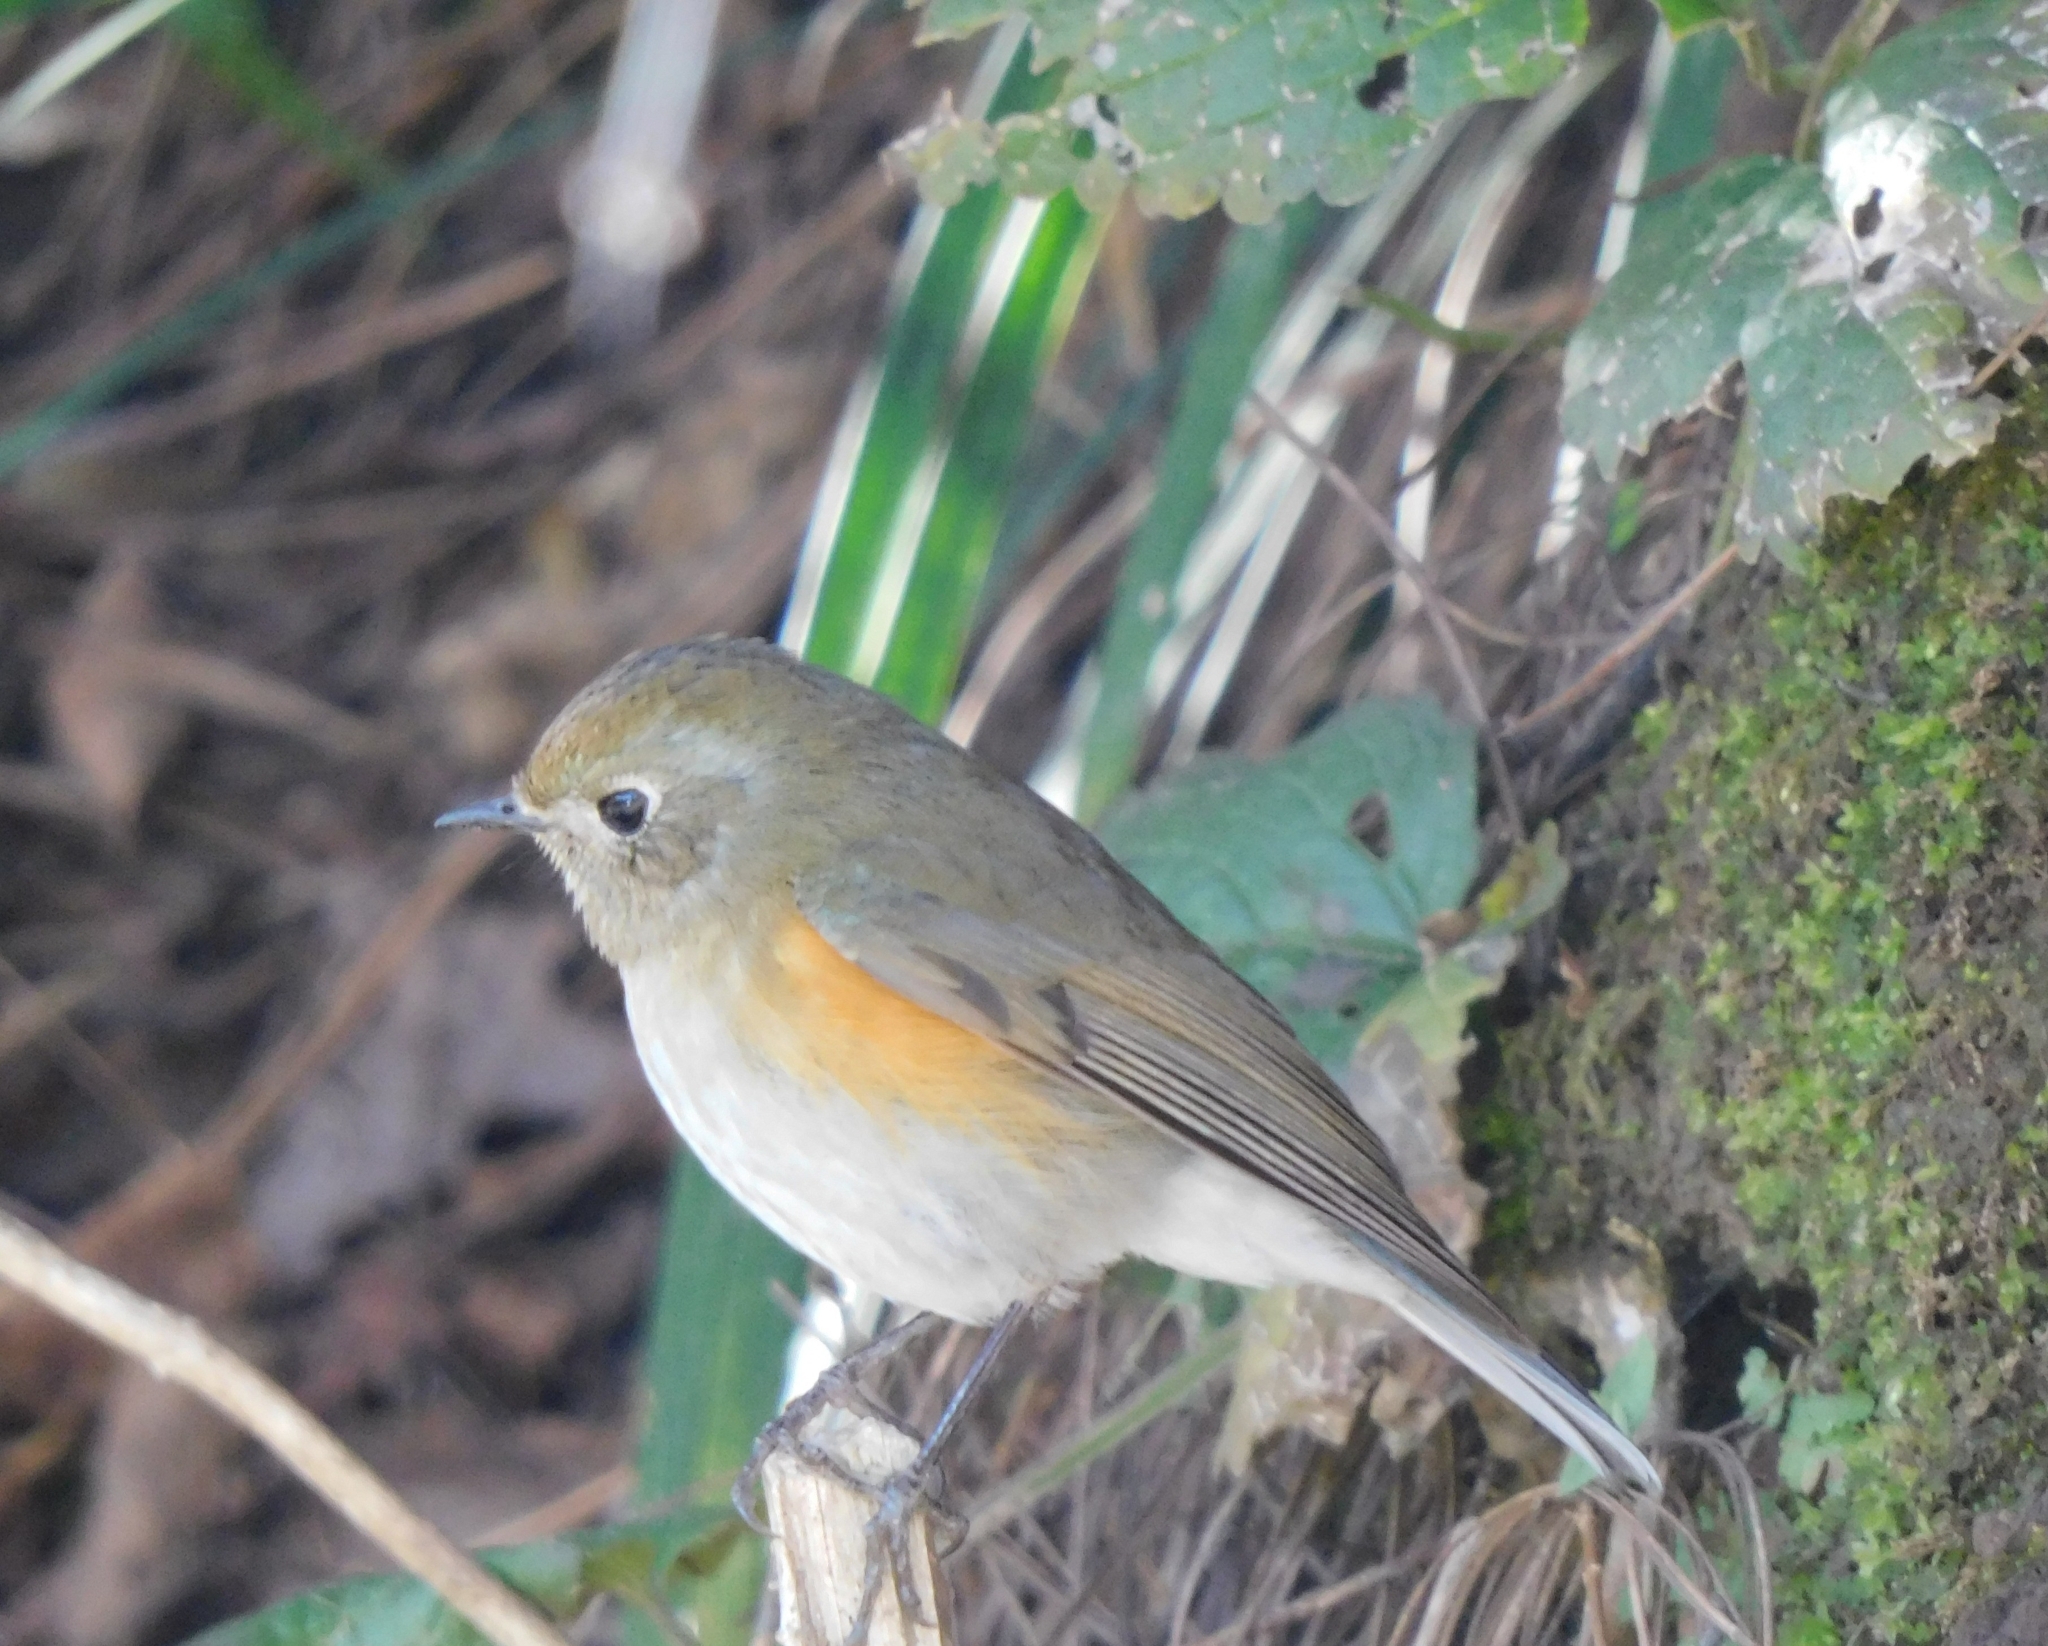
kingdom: Animalia
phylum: Chordata
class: Aves
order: Passeriformes
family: Muscicapidae
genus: Tarsiger
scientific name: Tarsiger rufilatus
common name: Himalayan bluetail
